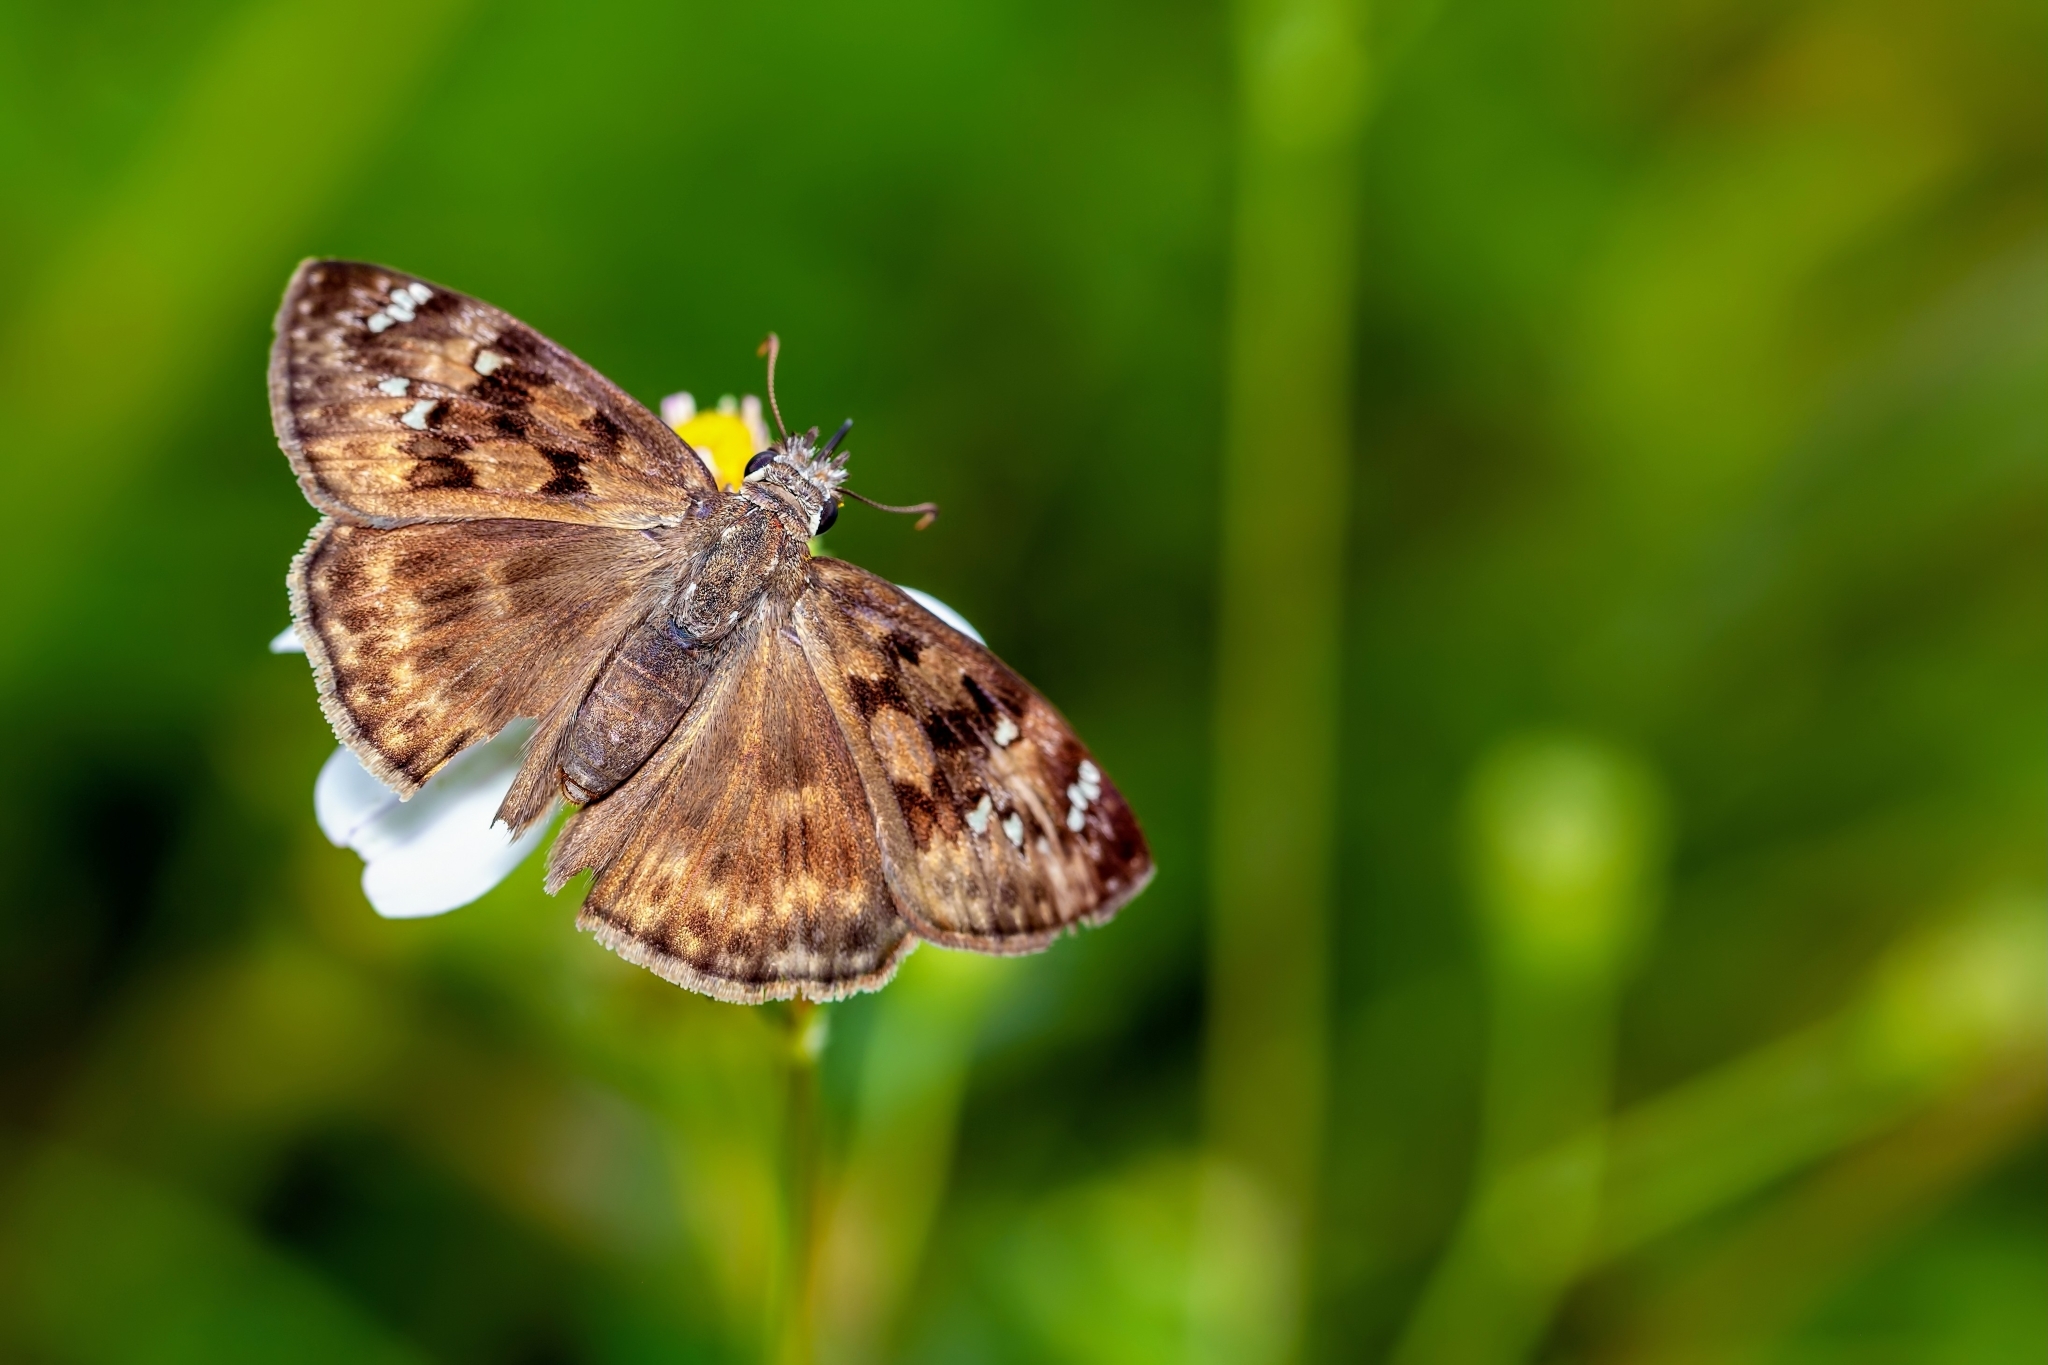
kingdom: Animalia
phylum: Arthropoda
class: Insecta
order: Lepidoptera
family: Hesperiidae
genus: Erynnis
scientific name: Erynnis horatius
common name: Horace's duskywing
